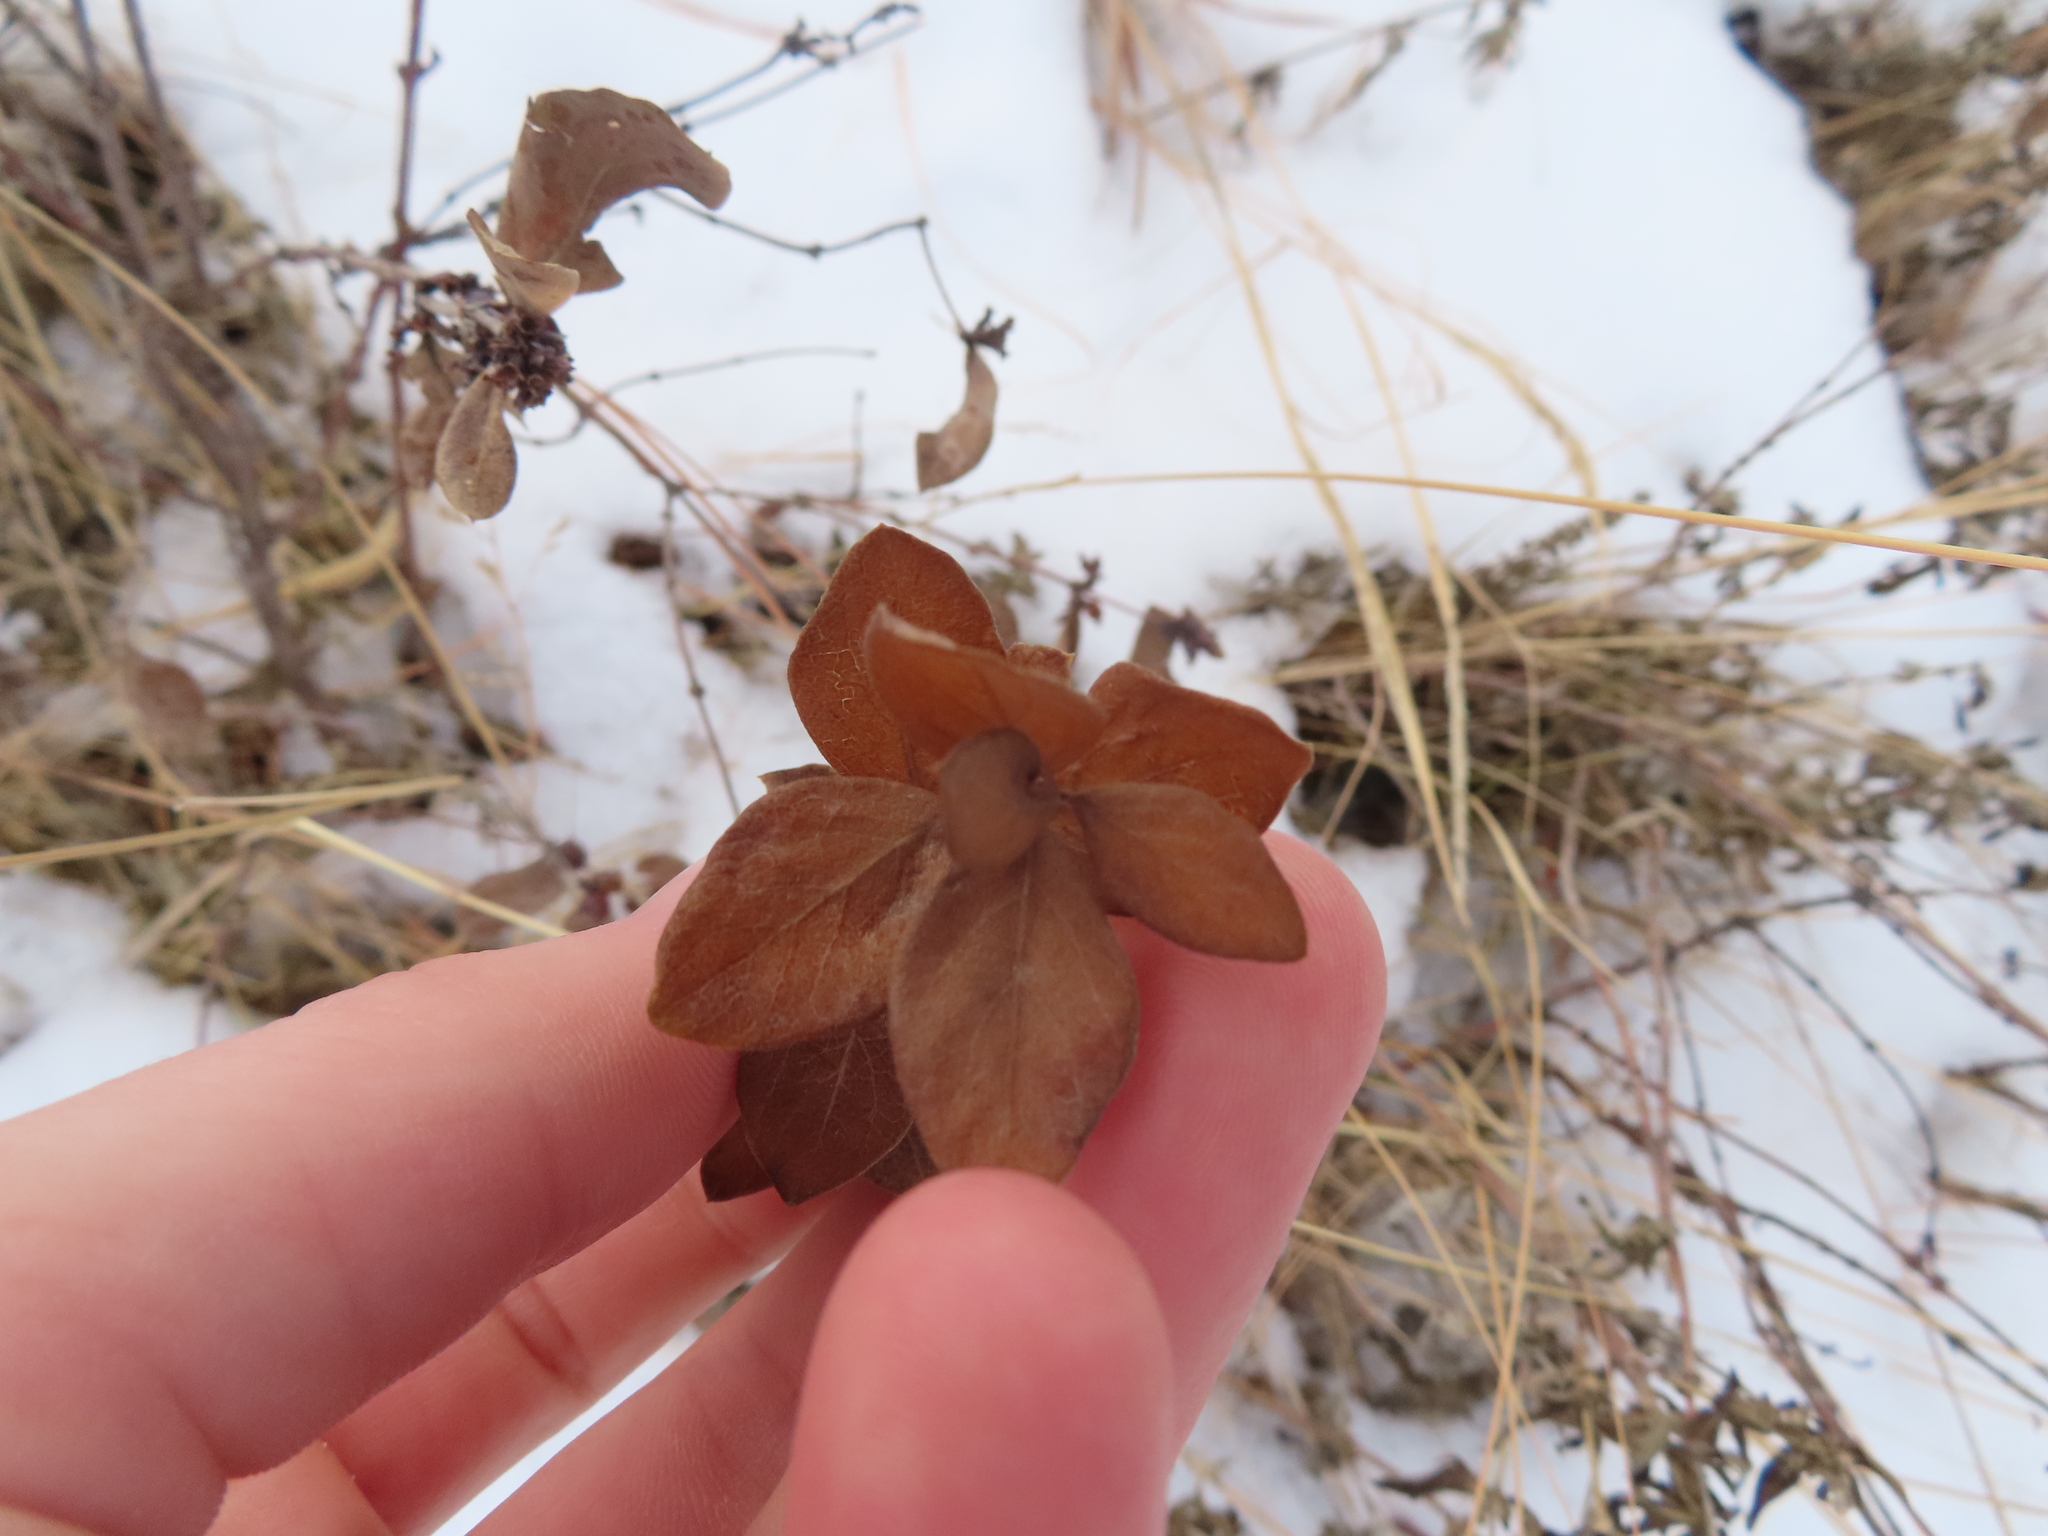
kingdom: Plantae
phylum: Tracheophyta
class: Magnoliopsida
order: Dipsacales
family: Caprifoliaceae
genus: Symphoricarpos
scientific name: Symphoricarpos occidentalis
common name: Wolfberry
